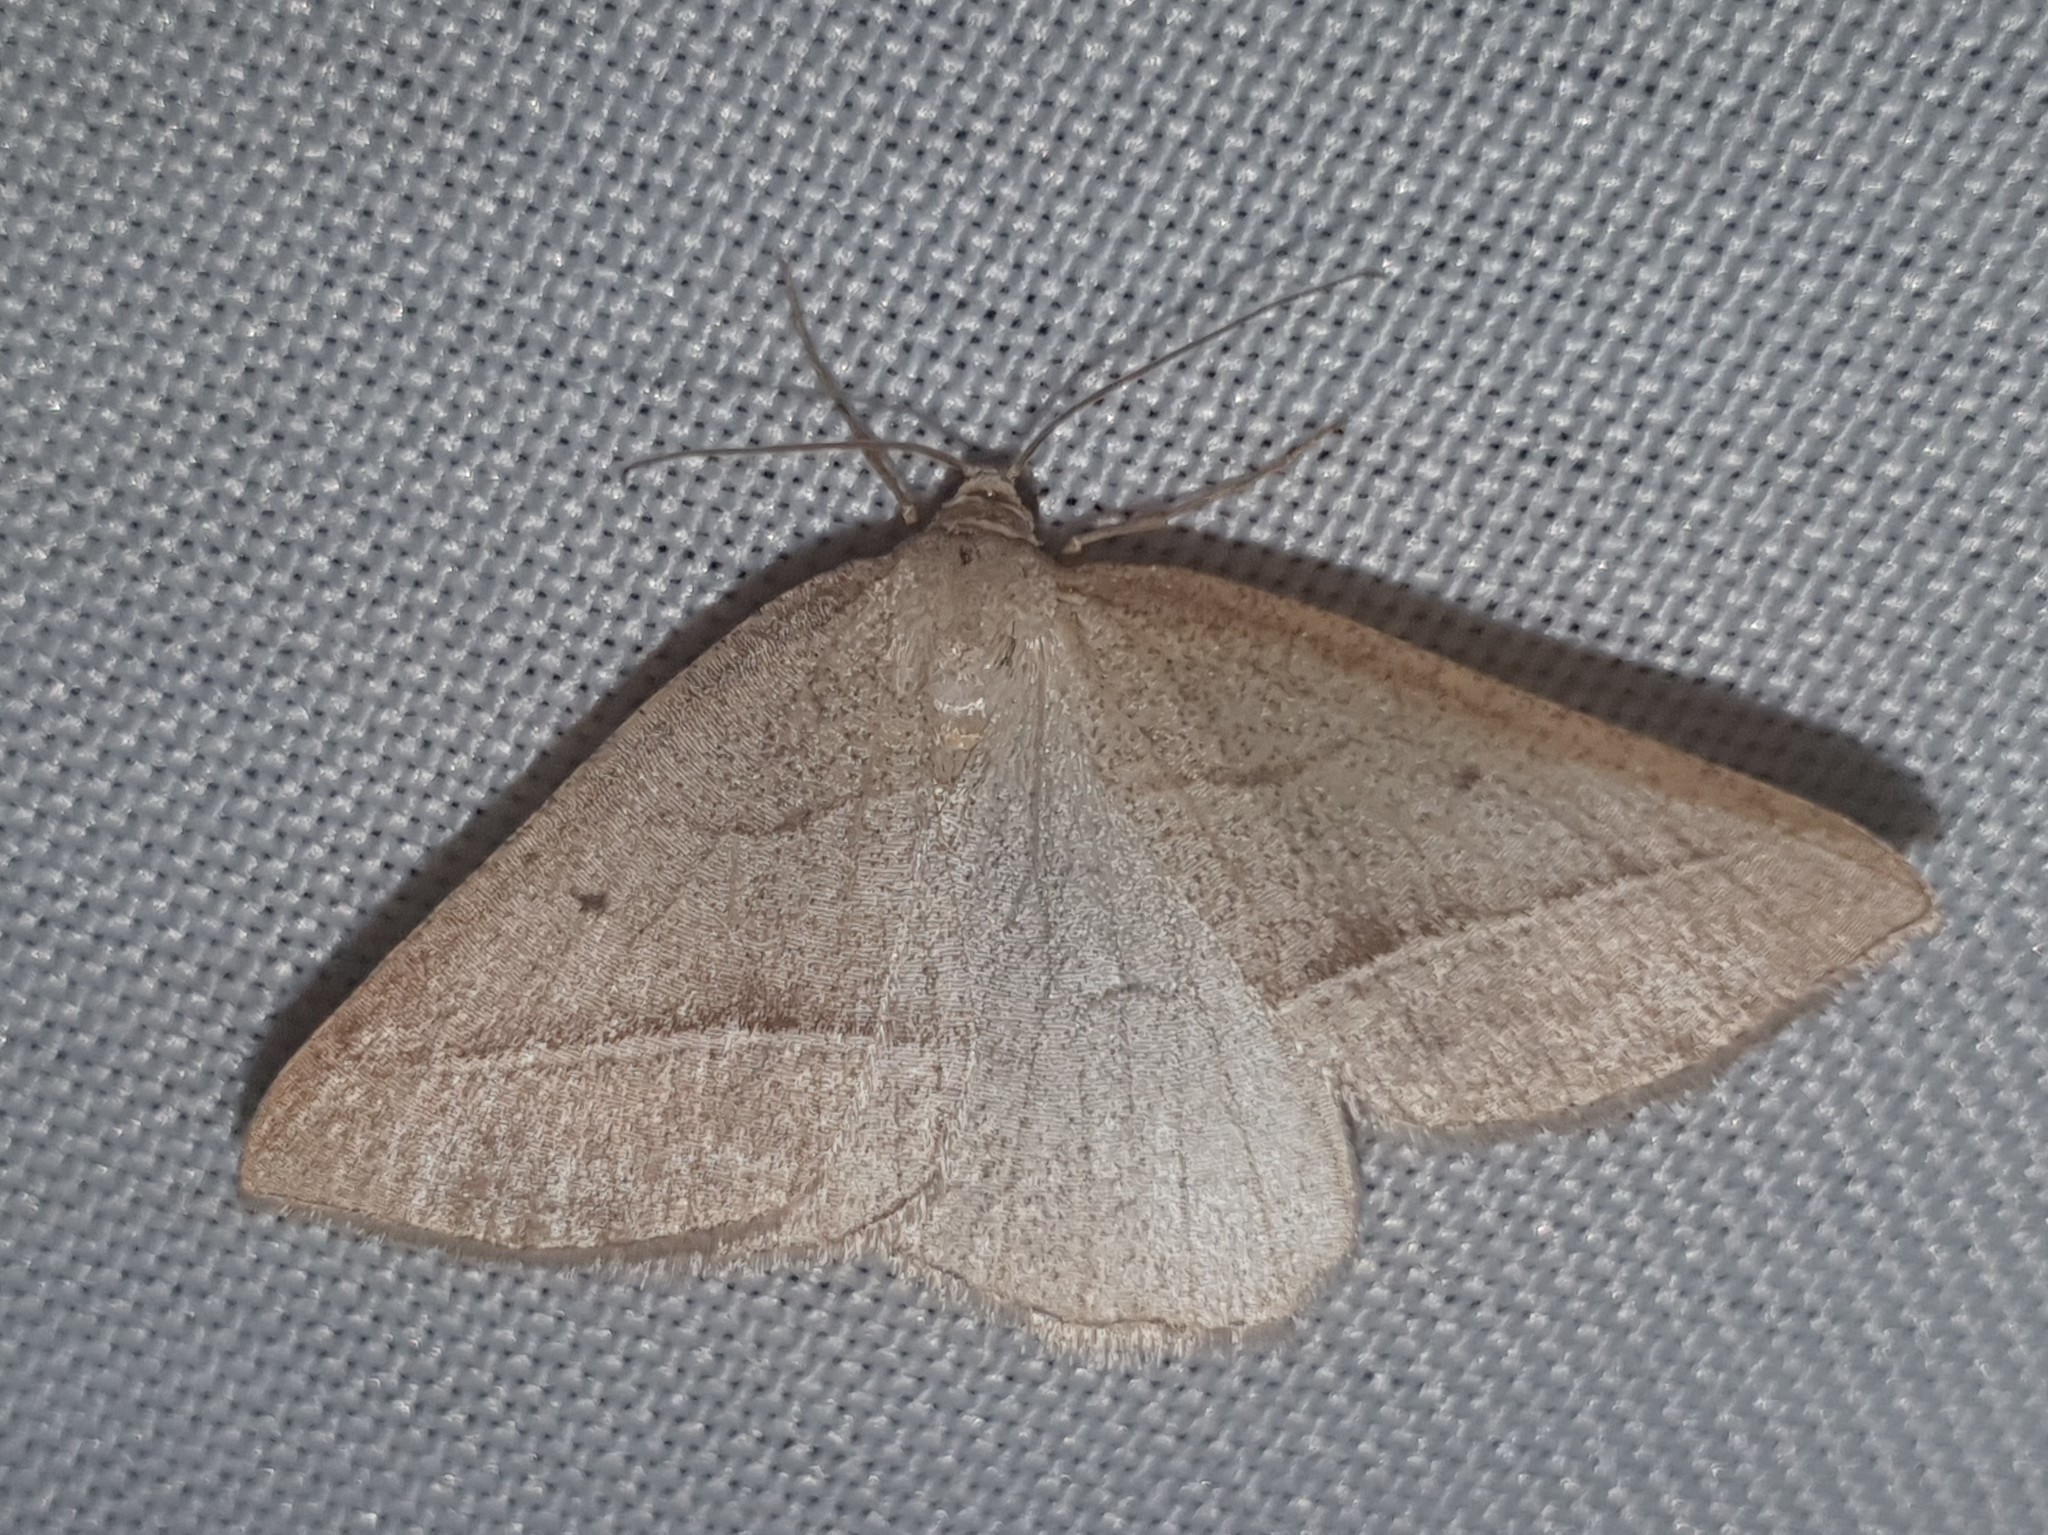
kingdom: Animalia
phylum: Arthropoda
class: Insecta
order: Lepidoptera
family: Pterophoridae
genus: Pterophorus
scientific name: Pterophorus Petrophora chlorosata
